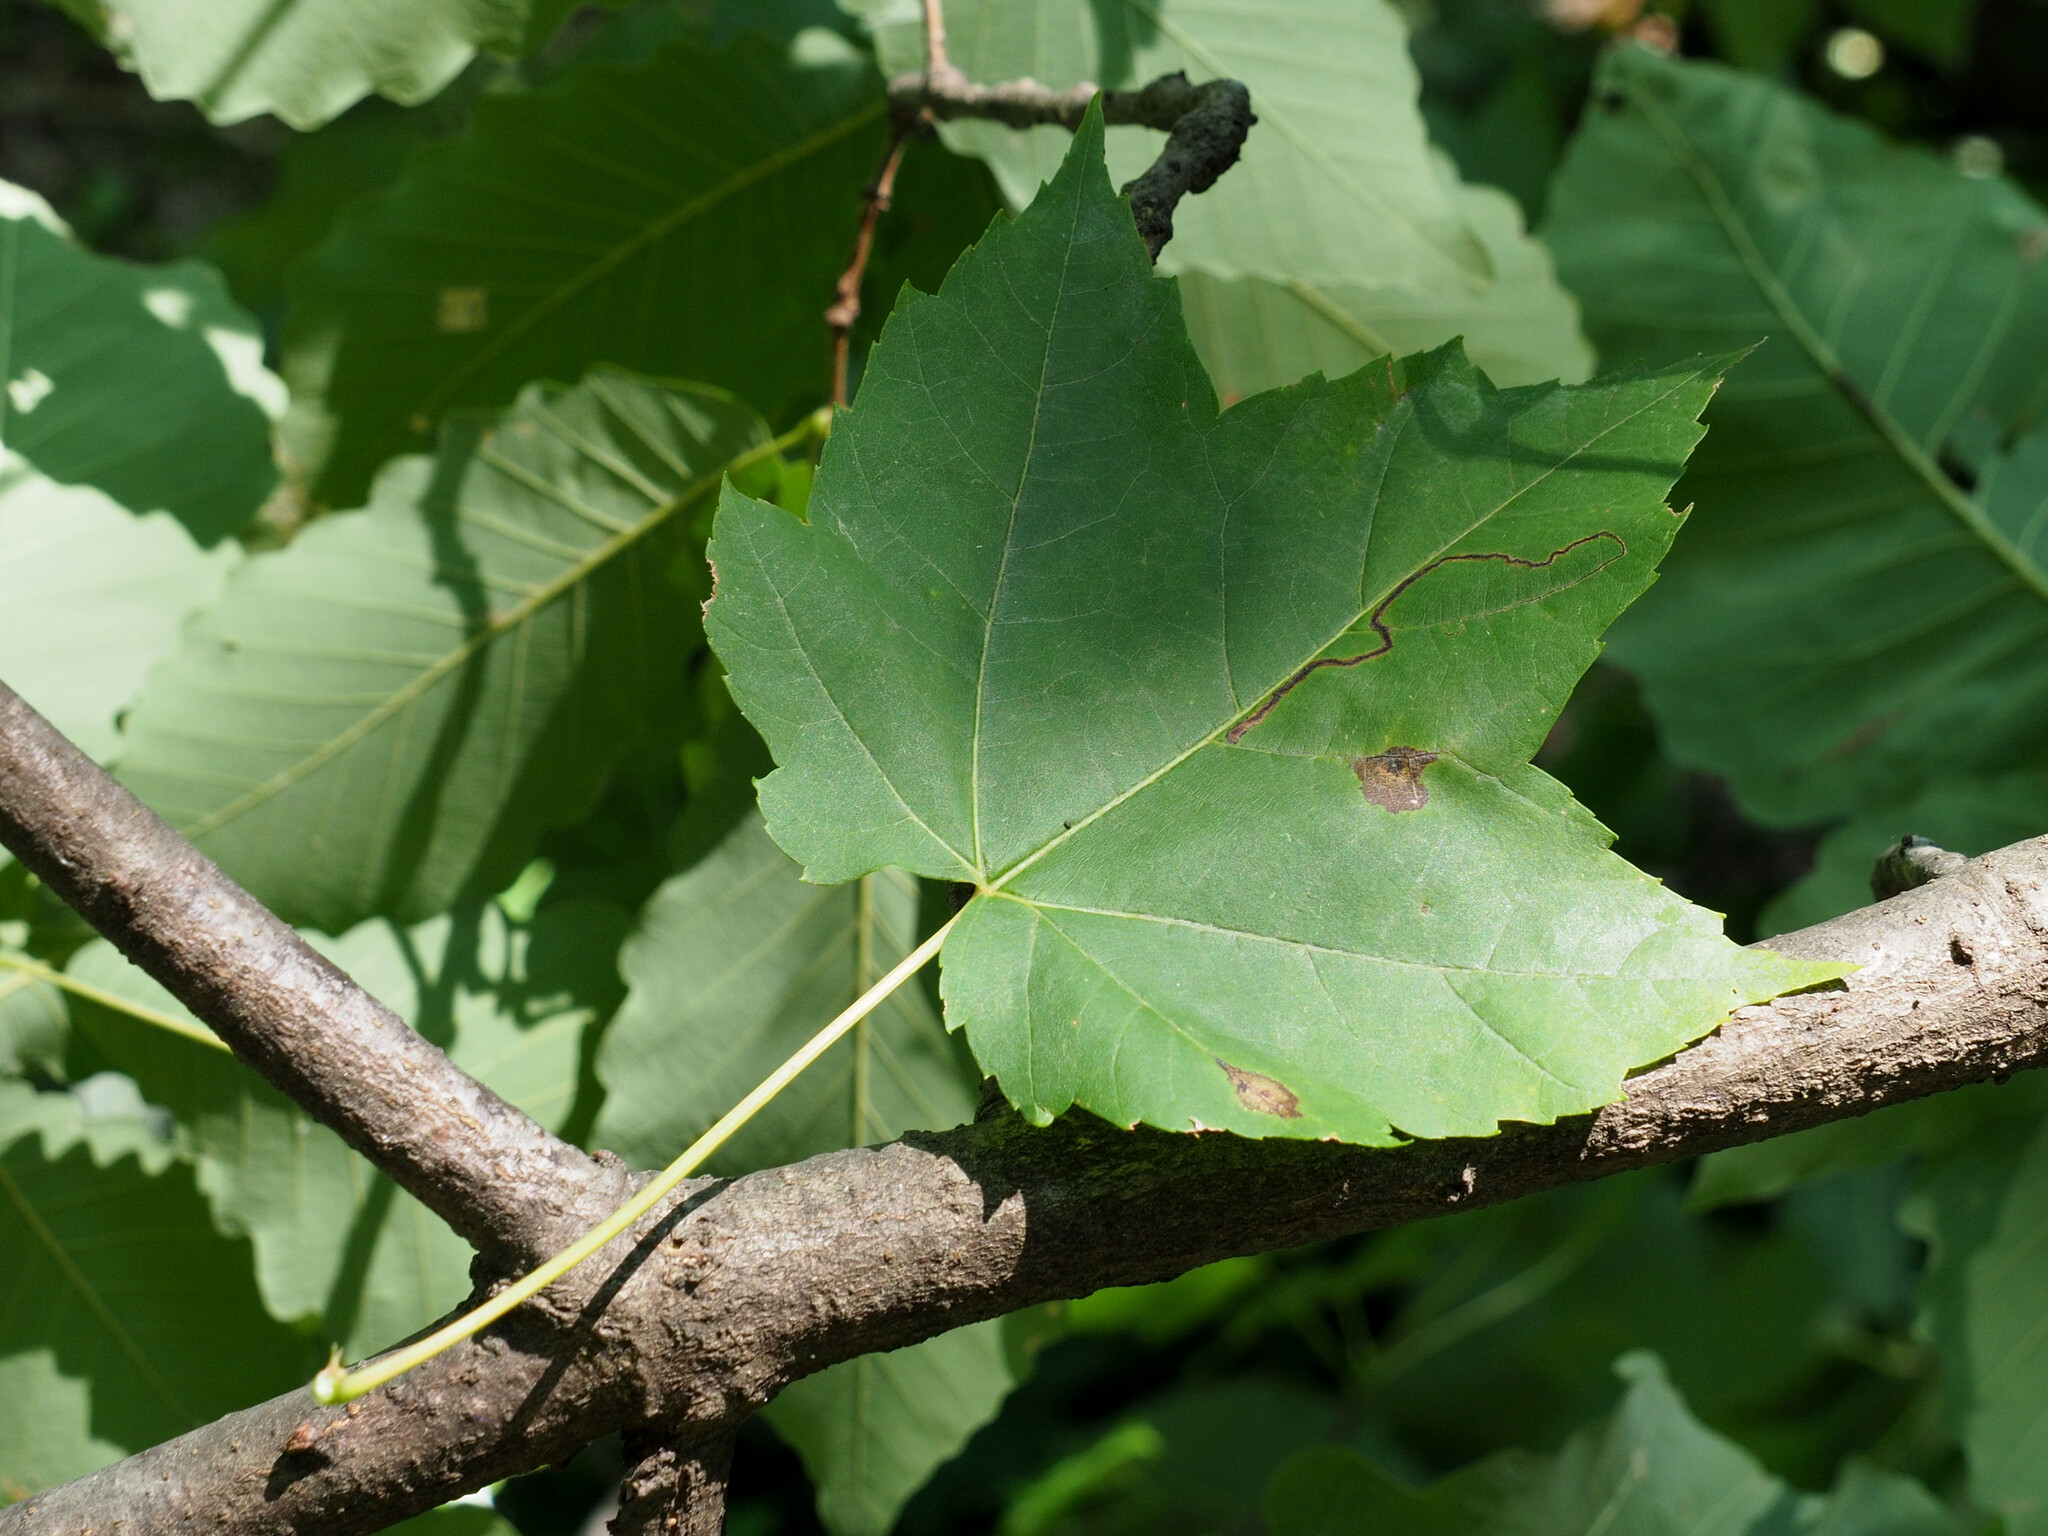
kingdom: Animalia
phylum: Arthropoda
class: Insecta
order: Lepidoptera
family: Nepticulidae
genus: Glaucolepis
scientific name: Glaucolepis saccharella
